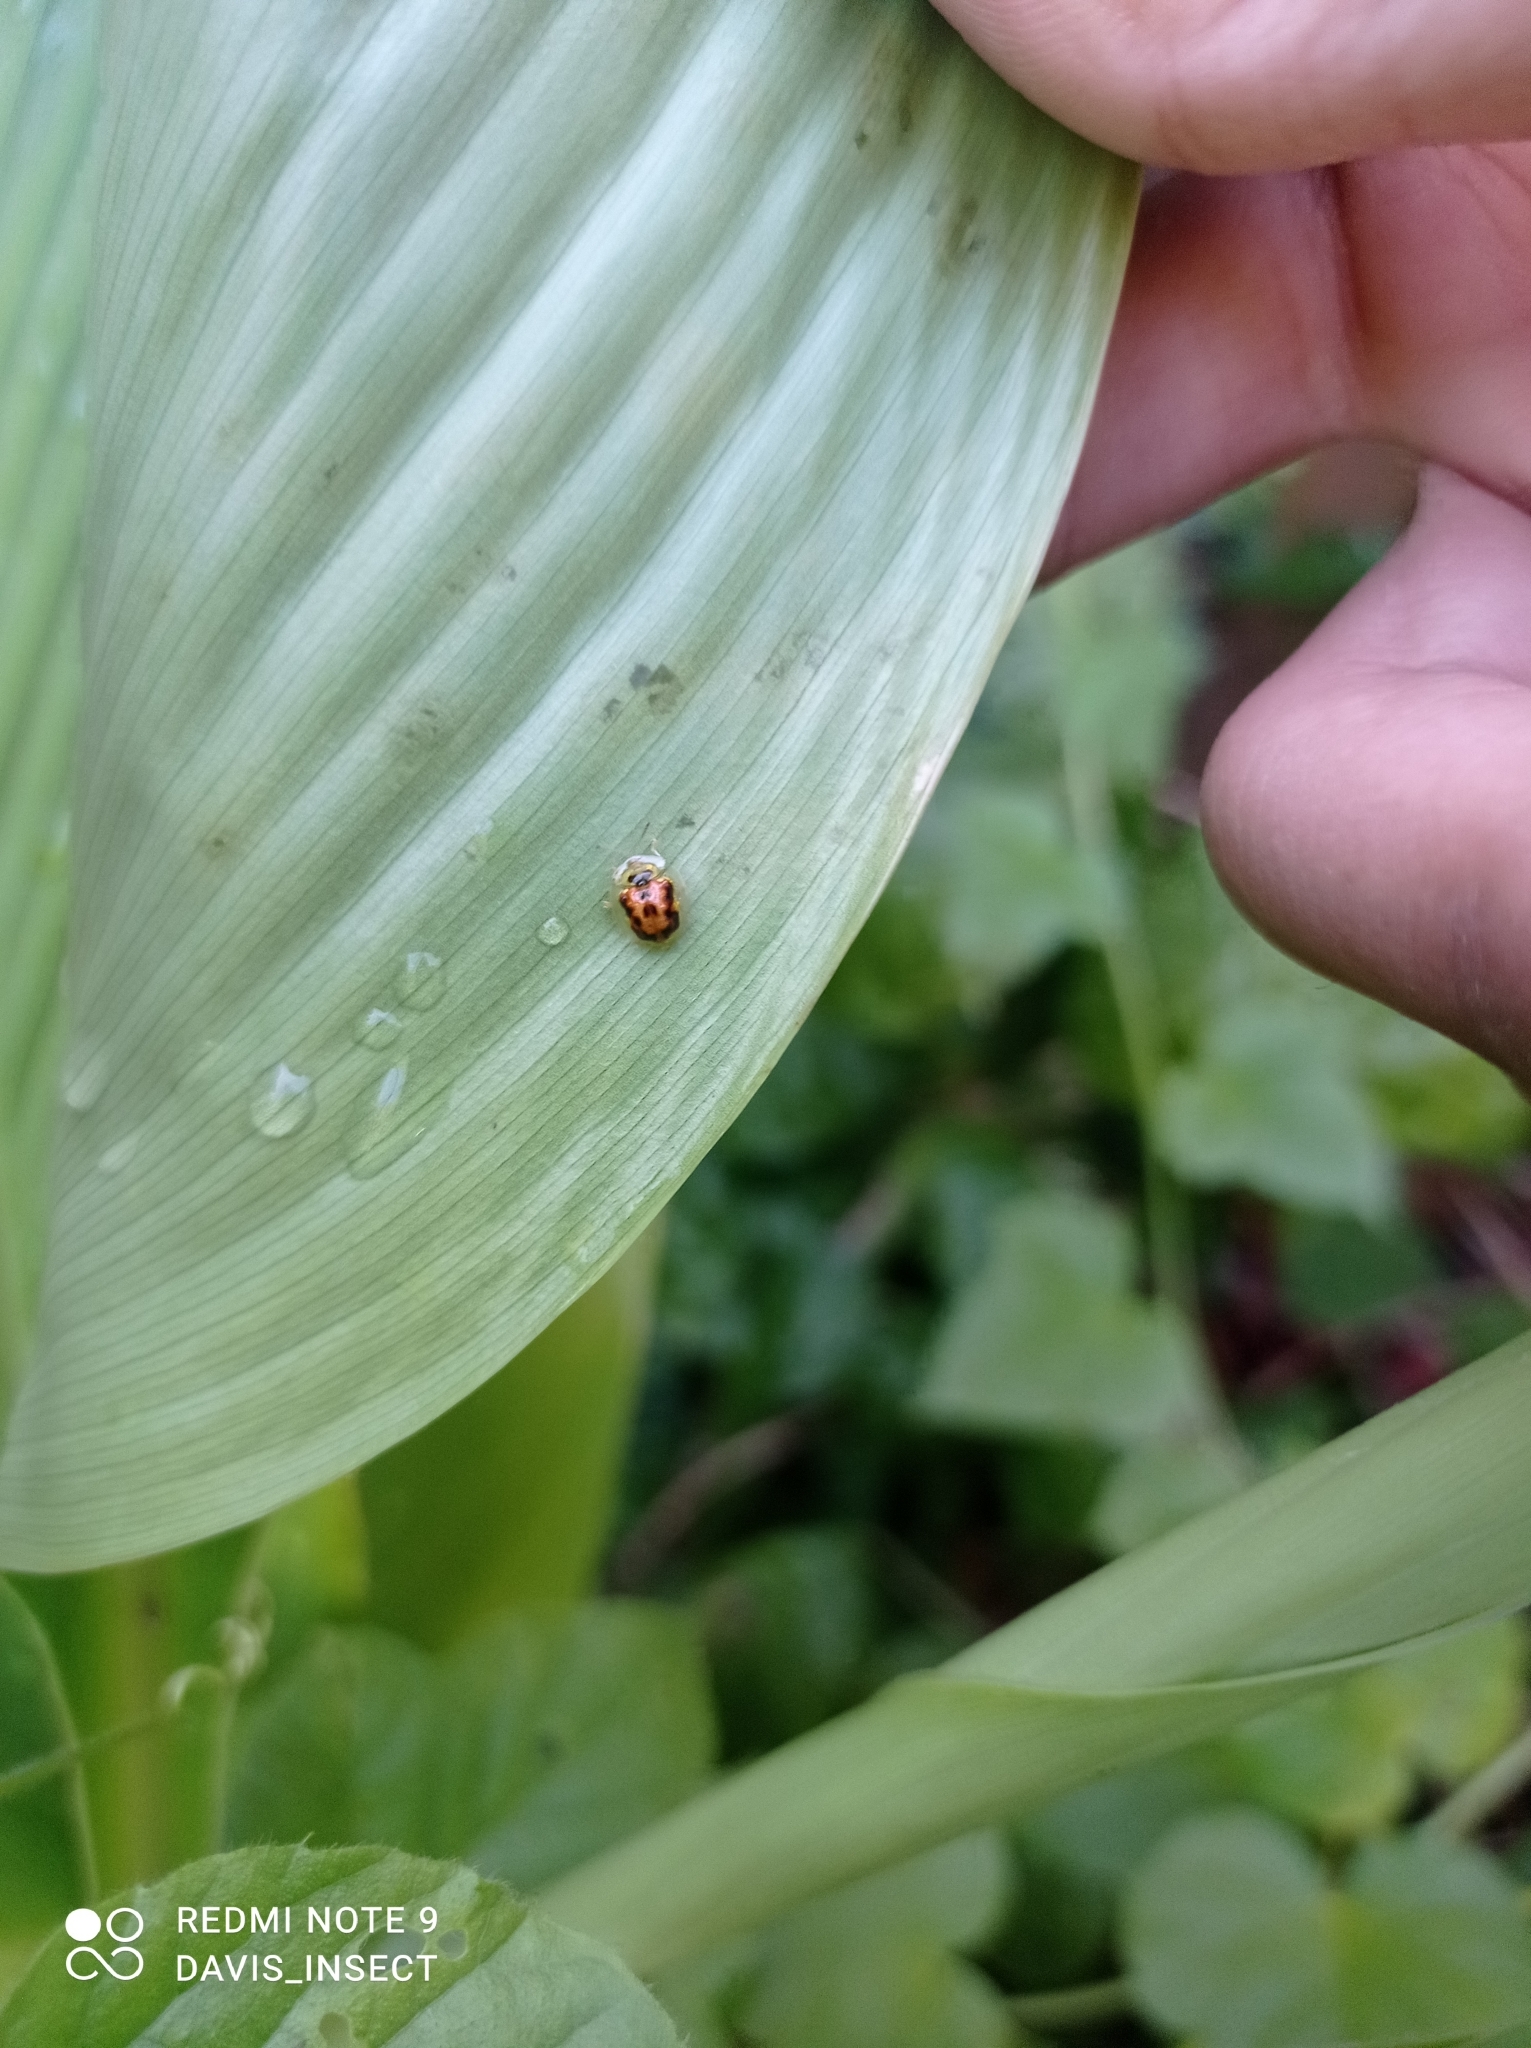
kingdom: Animalia
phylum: Arthropoda
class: Insecta
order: Coleoptera
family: Chrysomelidae
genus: Cassida
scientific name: Cassida timorensis
